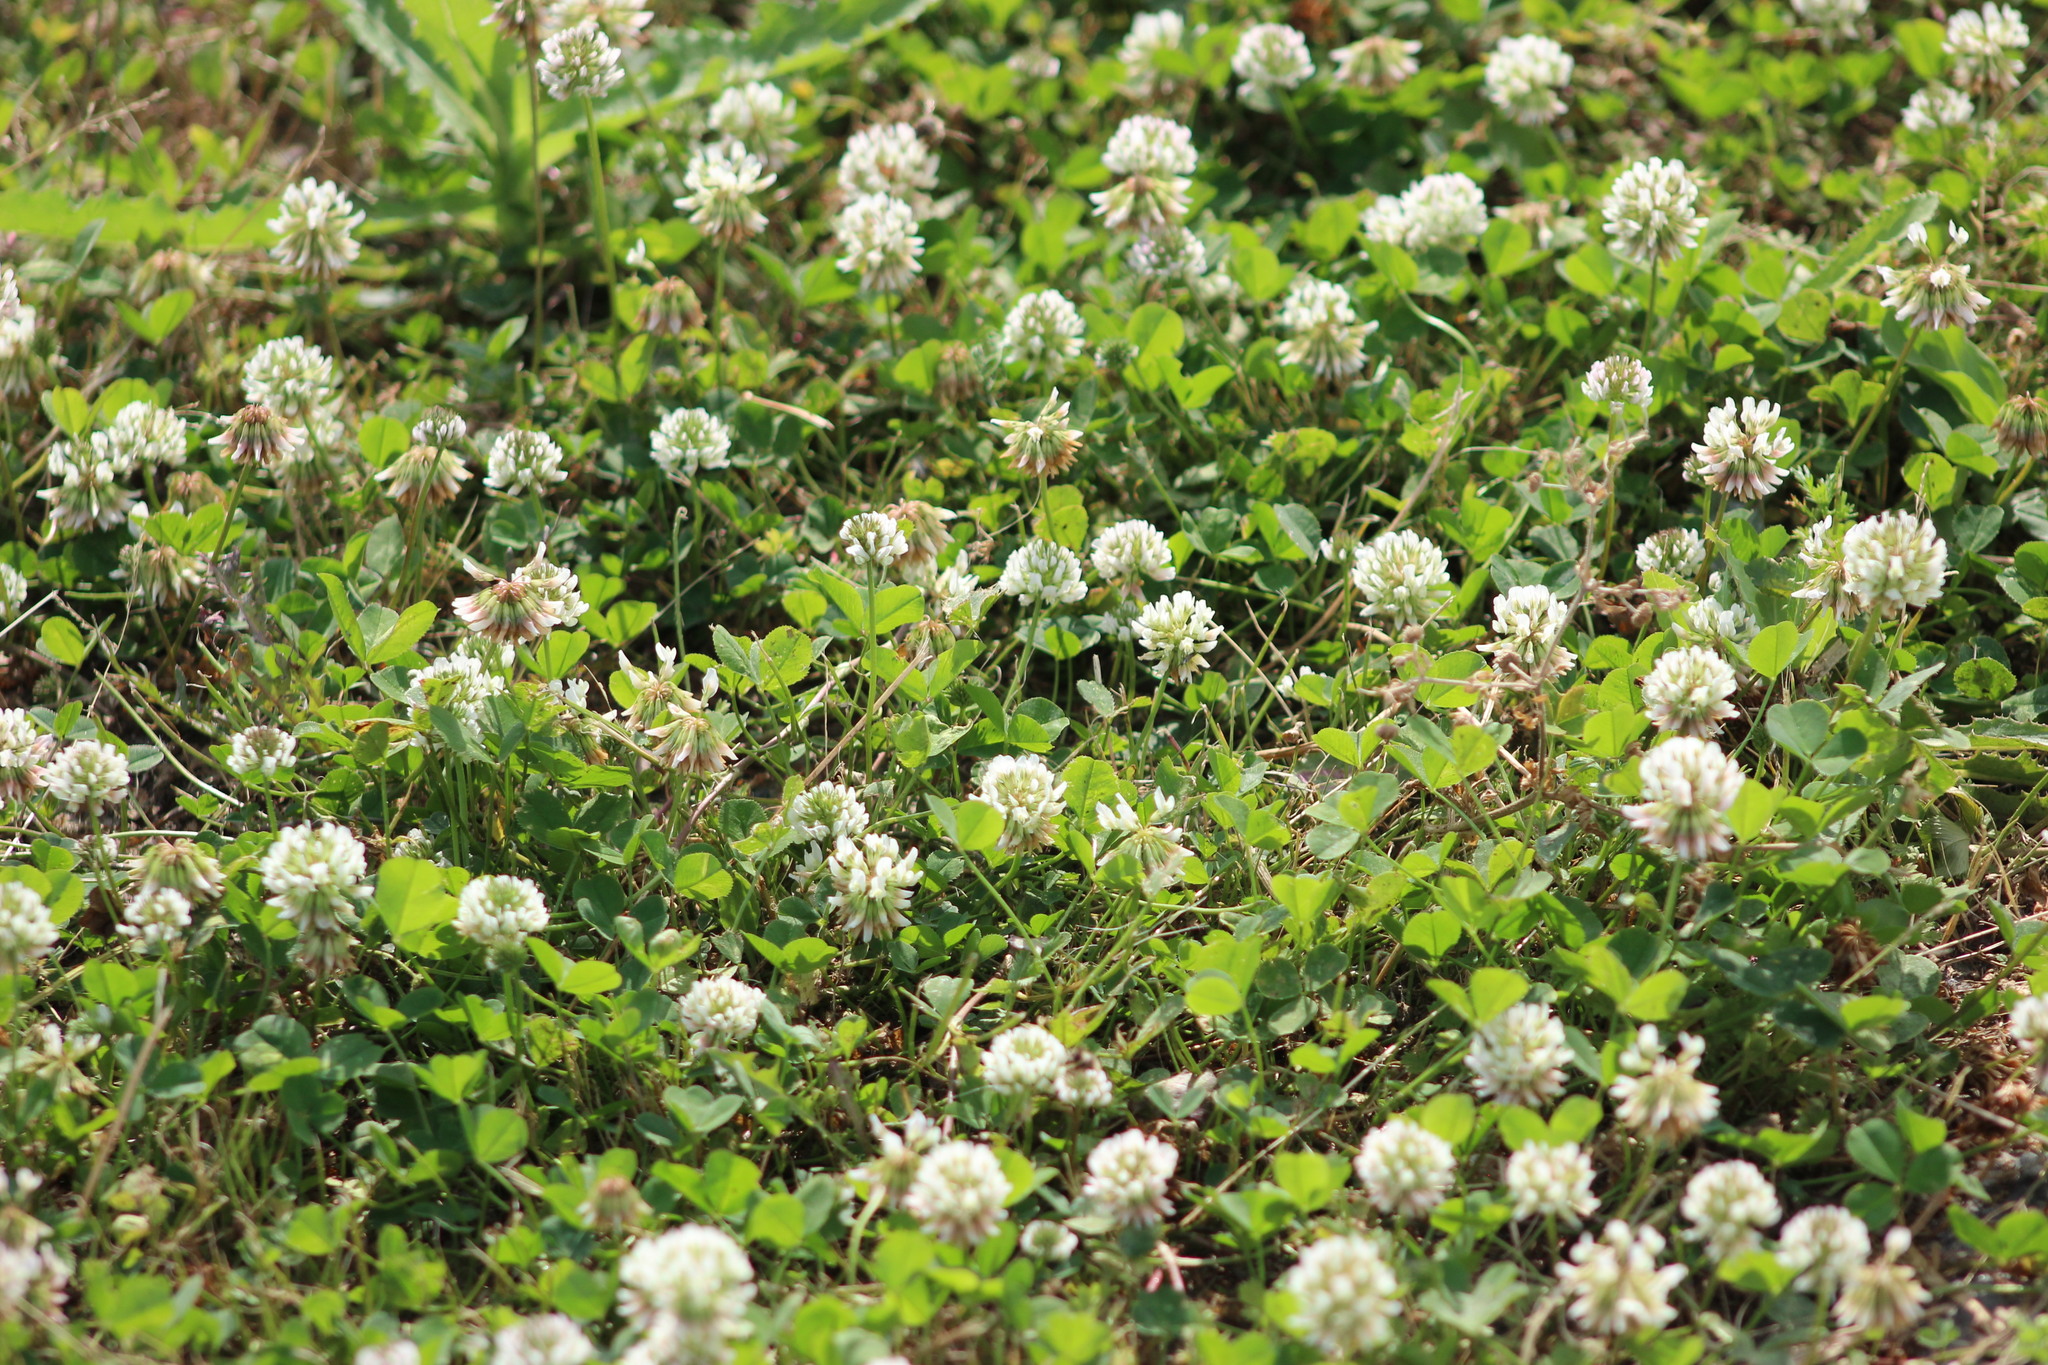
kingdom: Plantae
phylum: Tracheophyta
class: Magnoliopsida
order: Fabales
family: Fabaceae
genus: Trifolium
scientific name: Trifolium repens
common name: White clover
